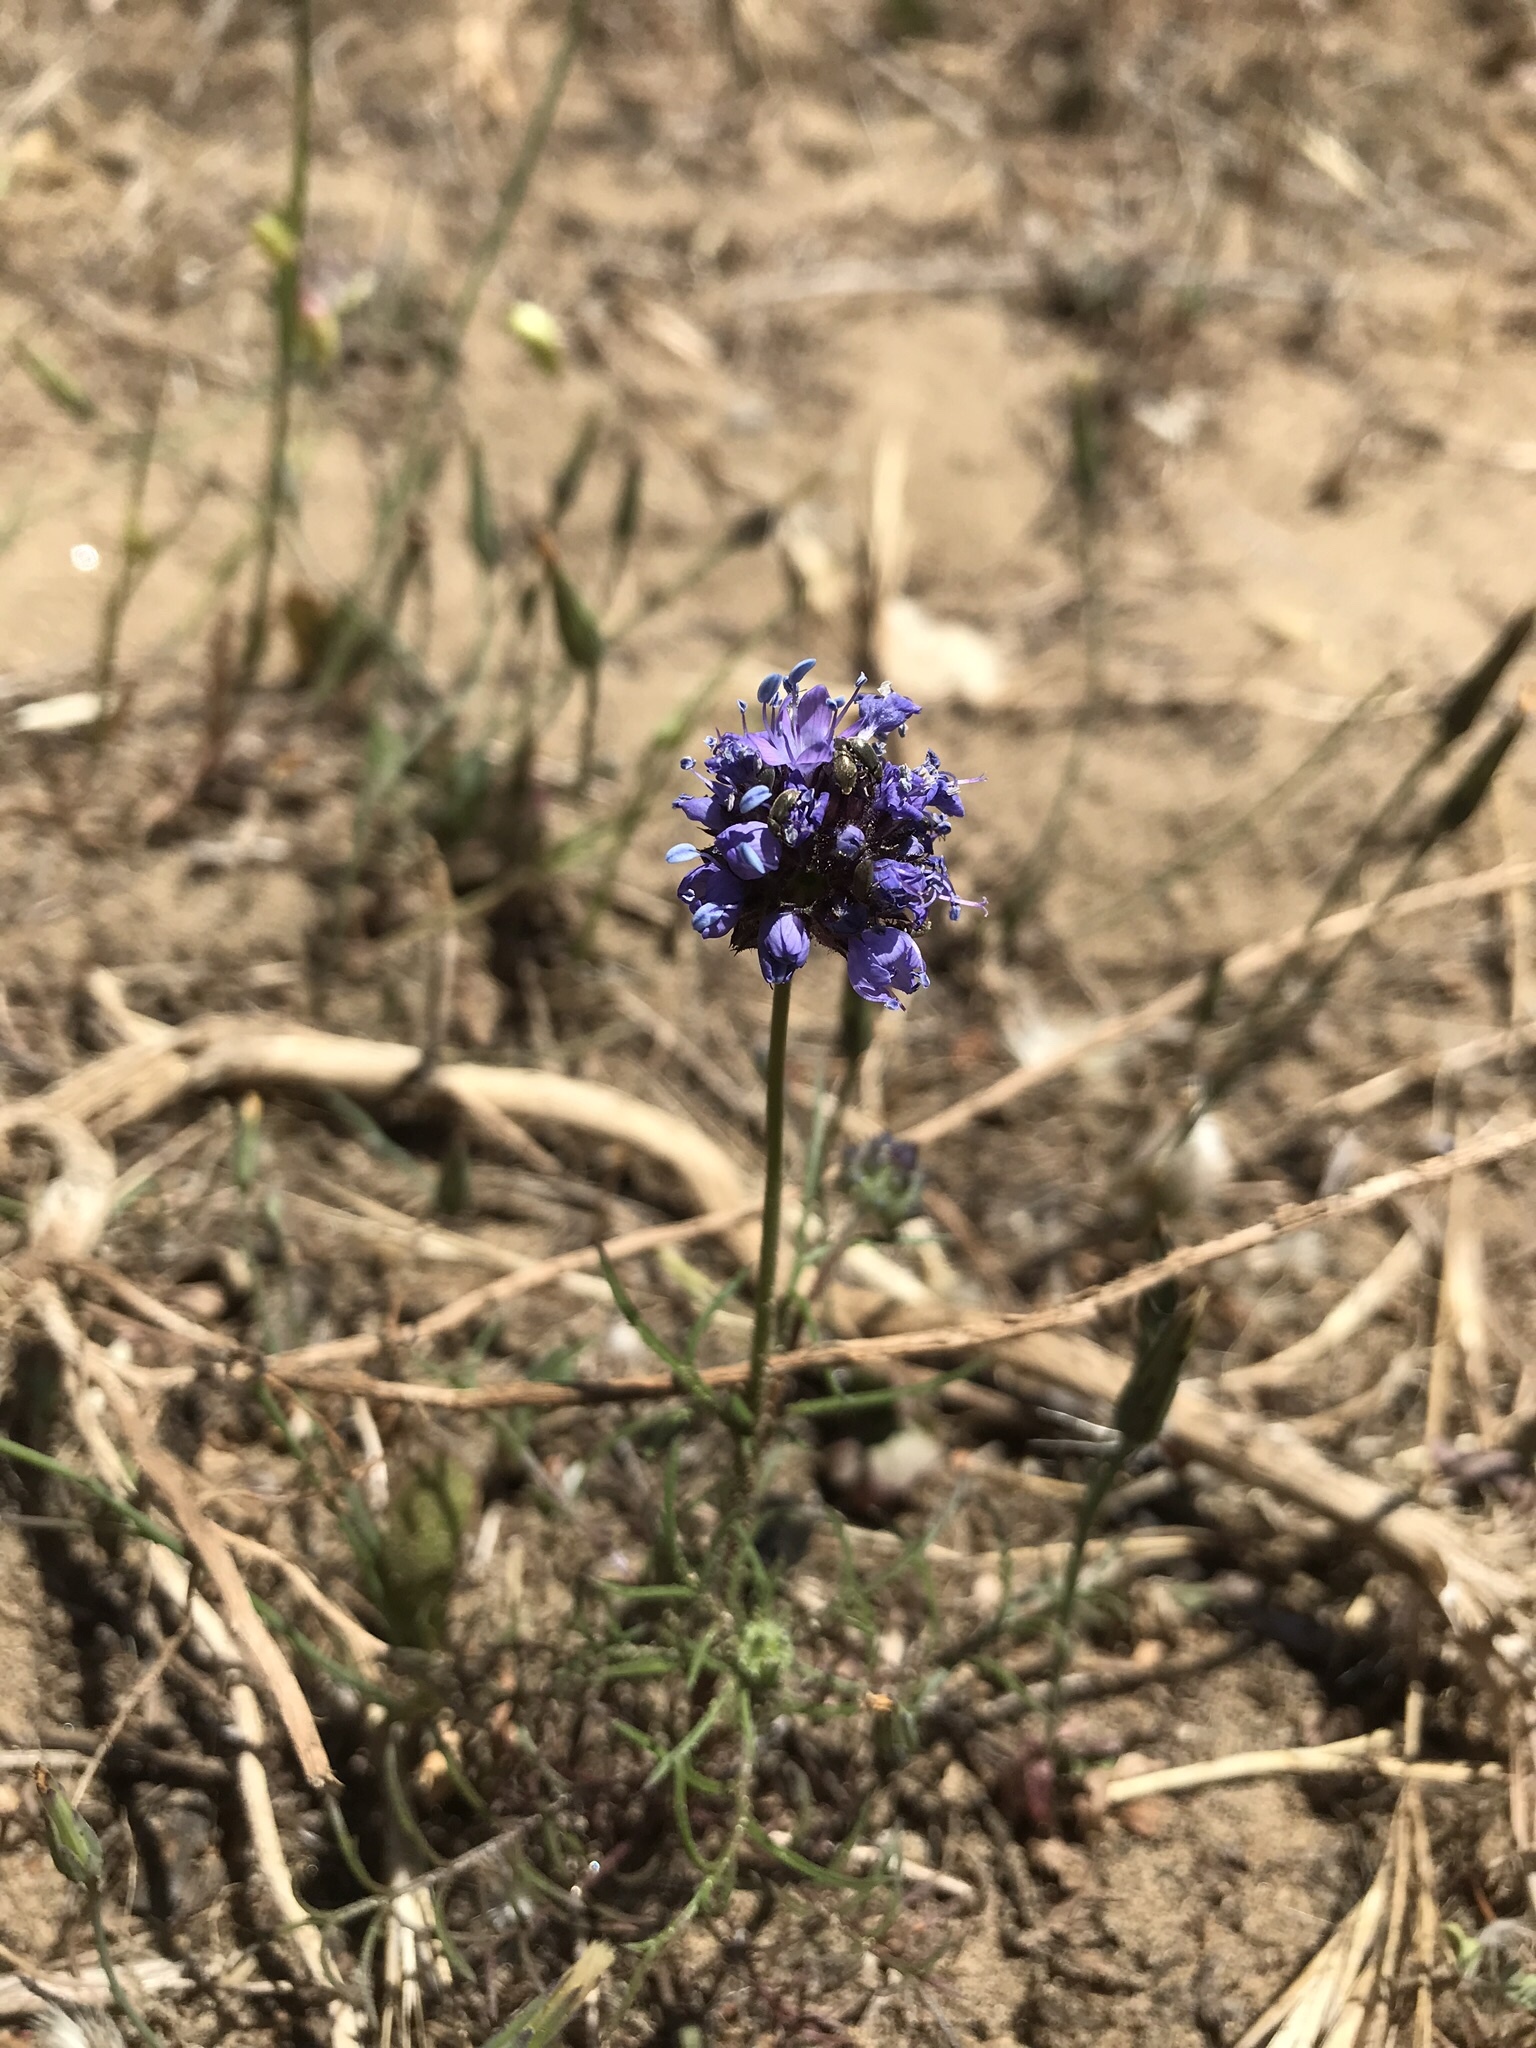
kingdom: Plantae
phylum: Tracheophyta
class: Magnoliopsida
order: Ericales
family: Polemoniaceae
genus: Gilia
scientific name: Gilia capitata
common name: Bluehead gilia
